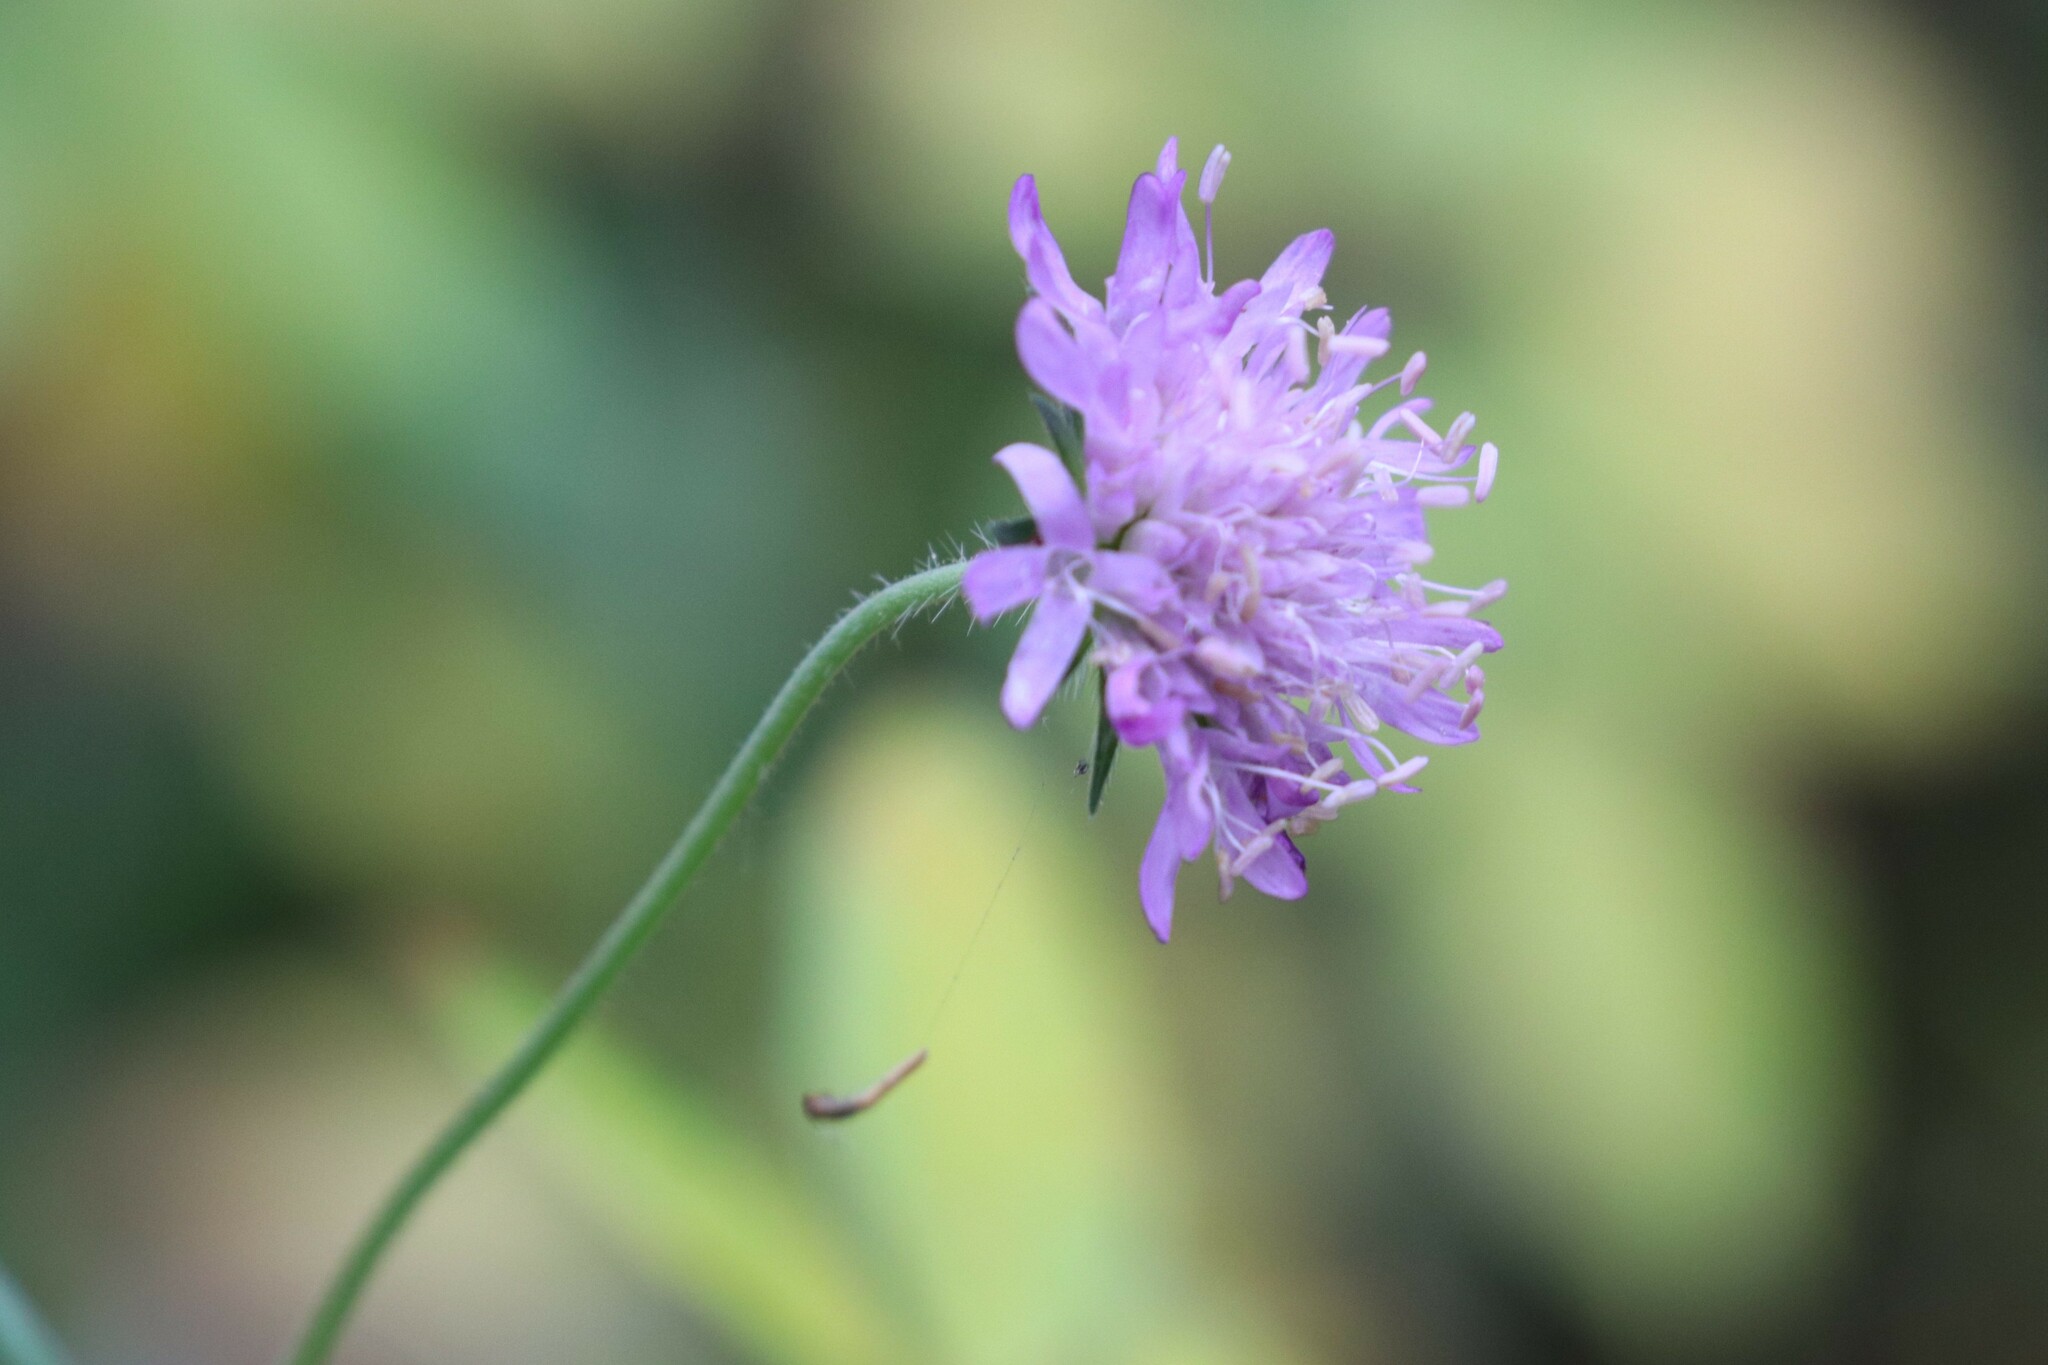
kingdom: Plantae
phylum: Tracheophyta
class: Magnoliopsida
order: Dipsacales
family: Caprifoliaceae
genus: Knautia
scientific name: Knautia arvensis
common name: Field scabiosa
